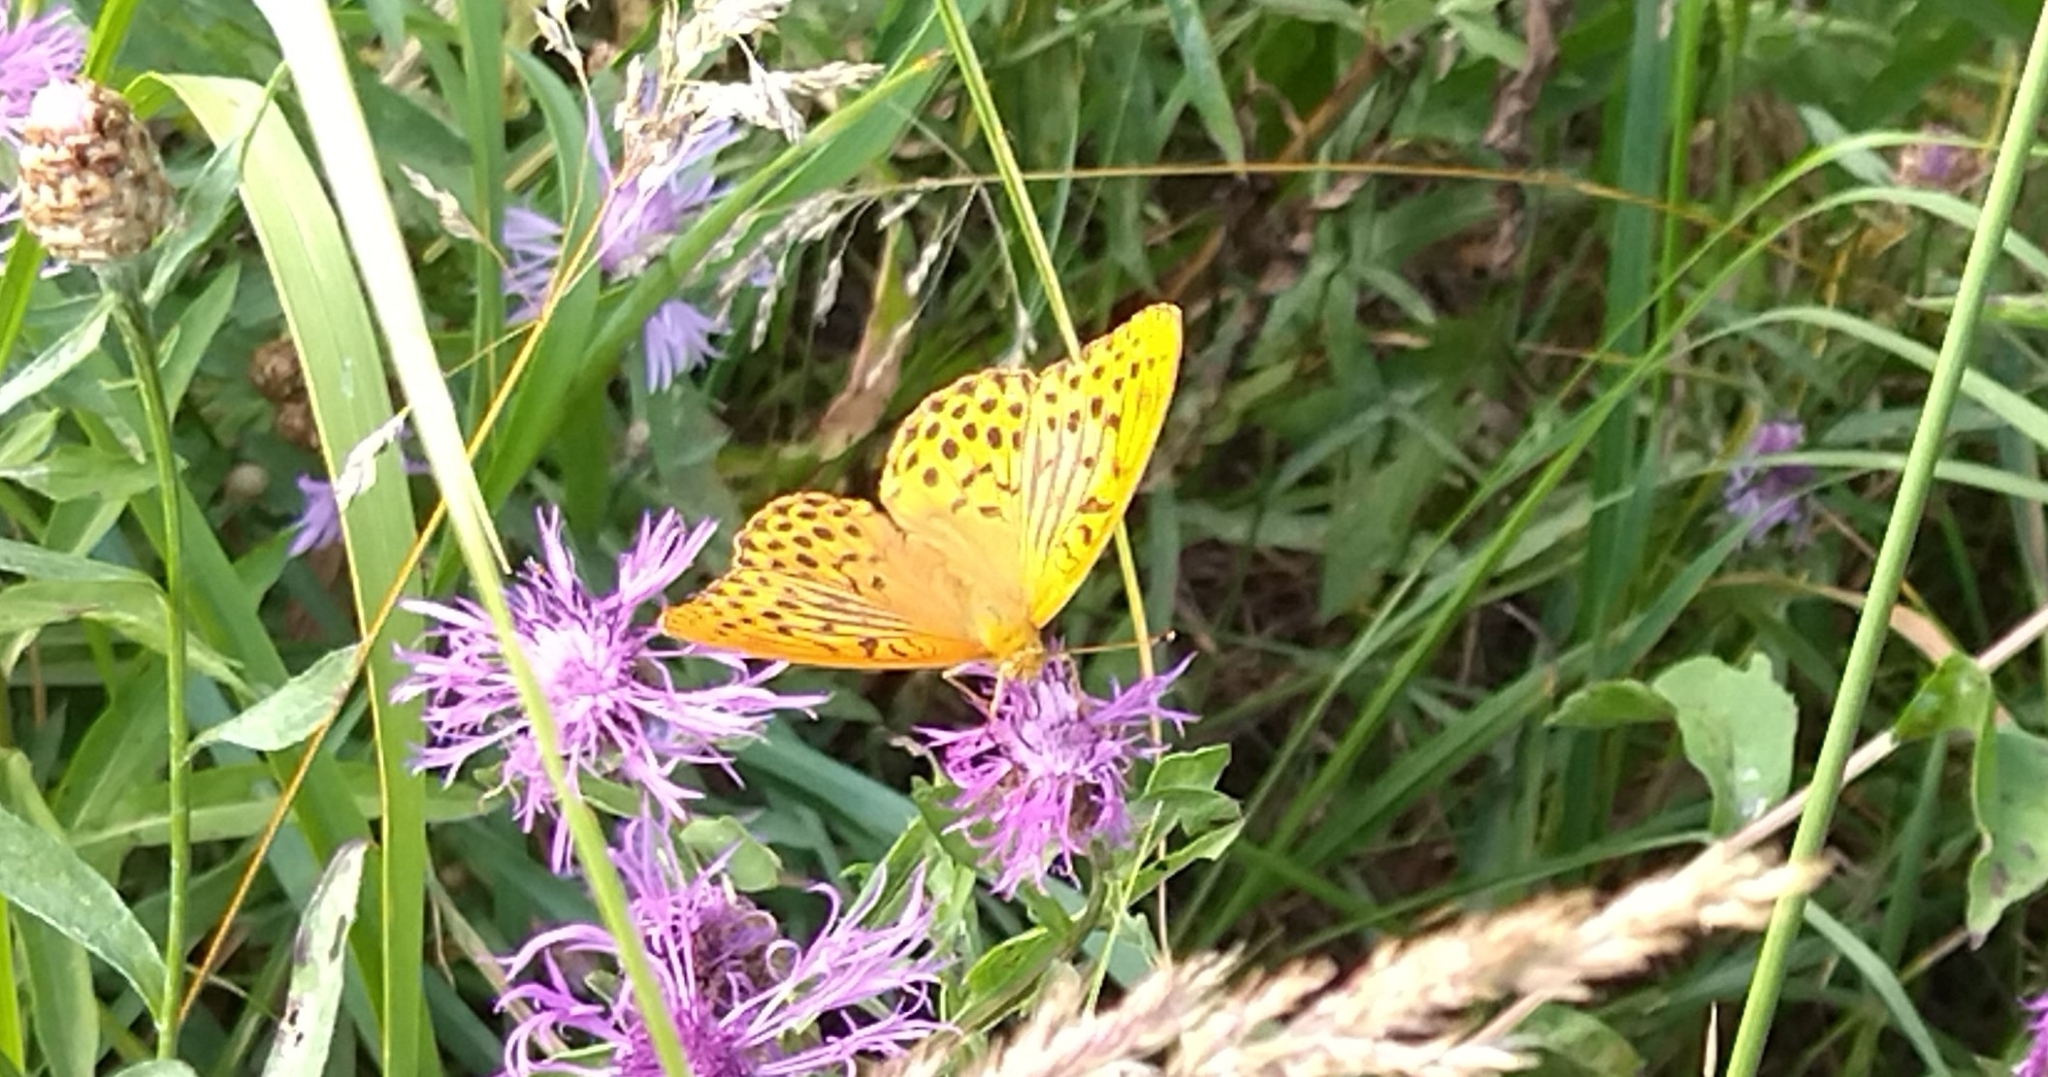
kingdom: Animalia
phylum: Arthropoda
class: Insecta
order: Lepidoptera
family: Nymphalidae
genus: Argynnis
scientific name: Argynnis paphia
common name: Silver-washed fritillary
